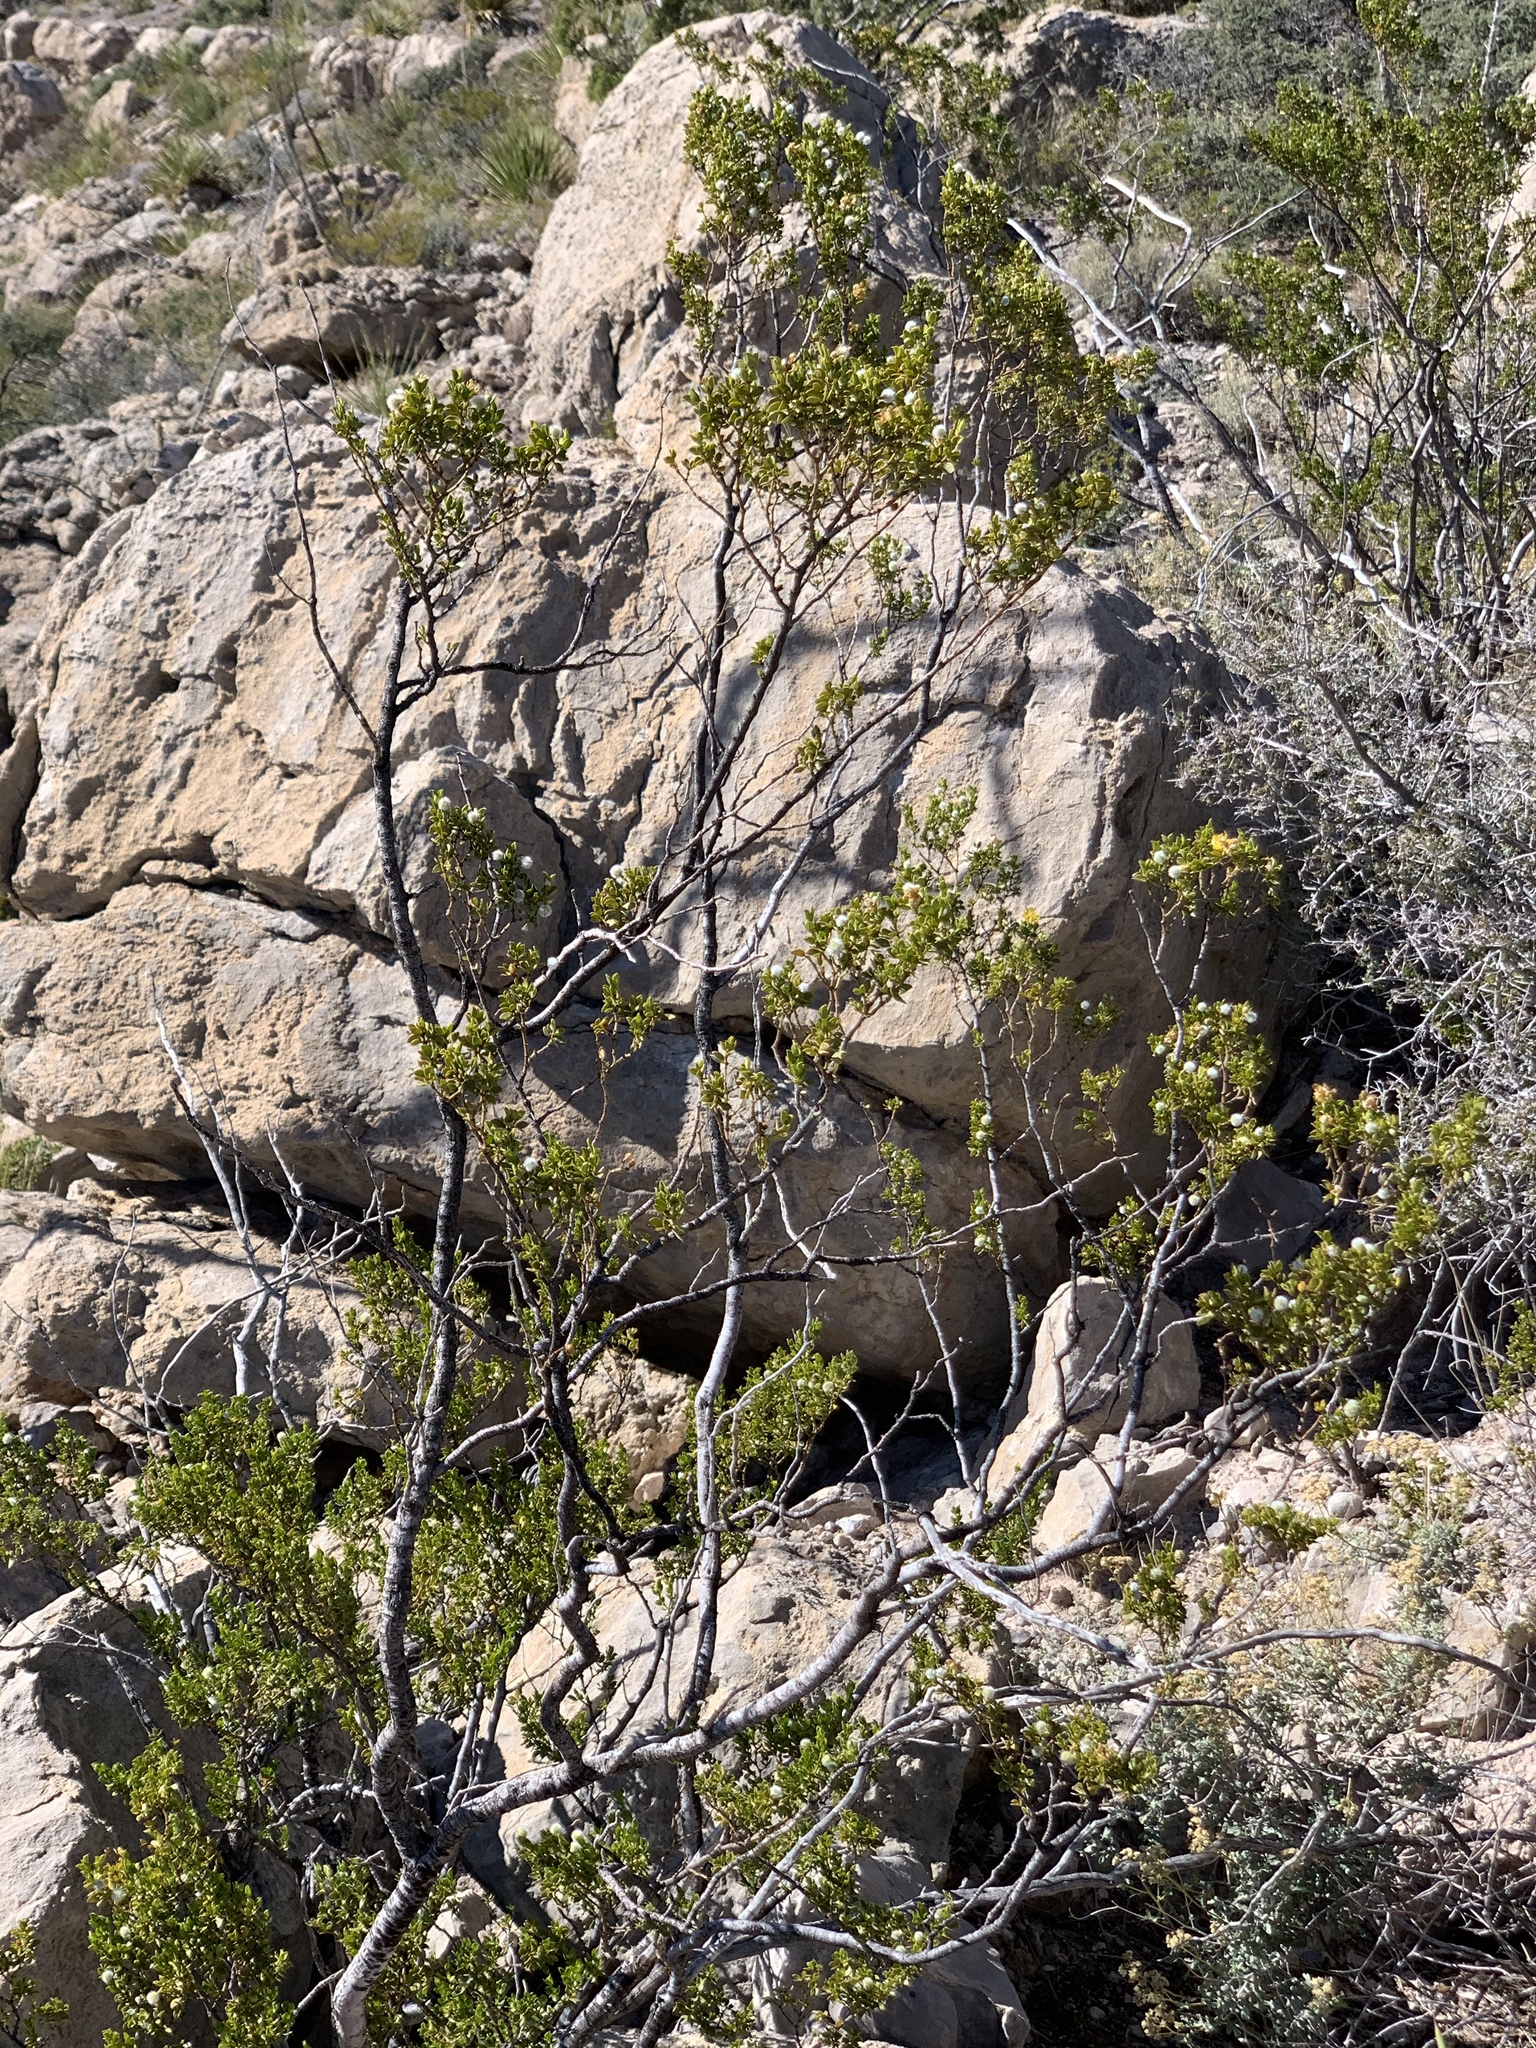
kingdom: Plantae
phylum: Tracheophyta
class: Magnoliopsida
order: Zygophyllales
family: Zygophyllaceae
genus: Larrea
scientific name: Larrea tridentata
